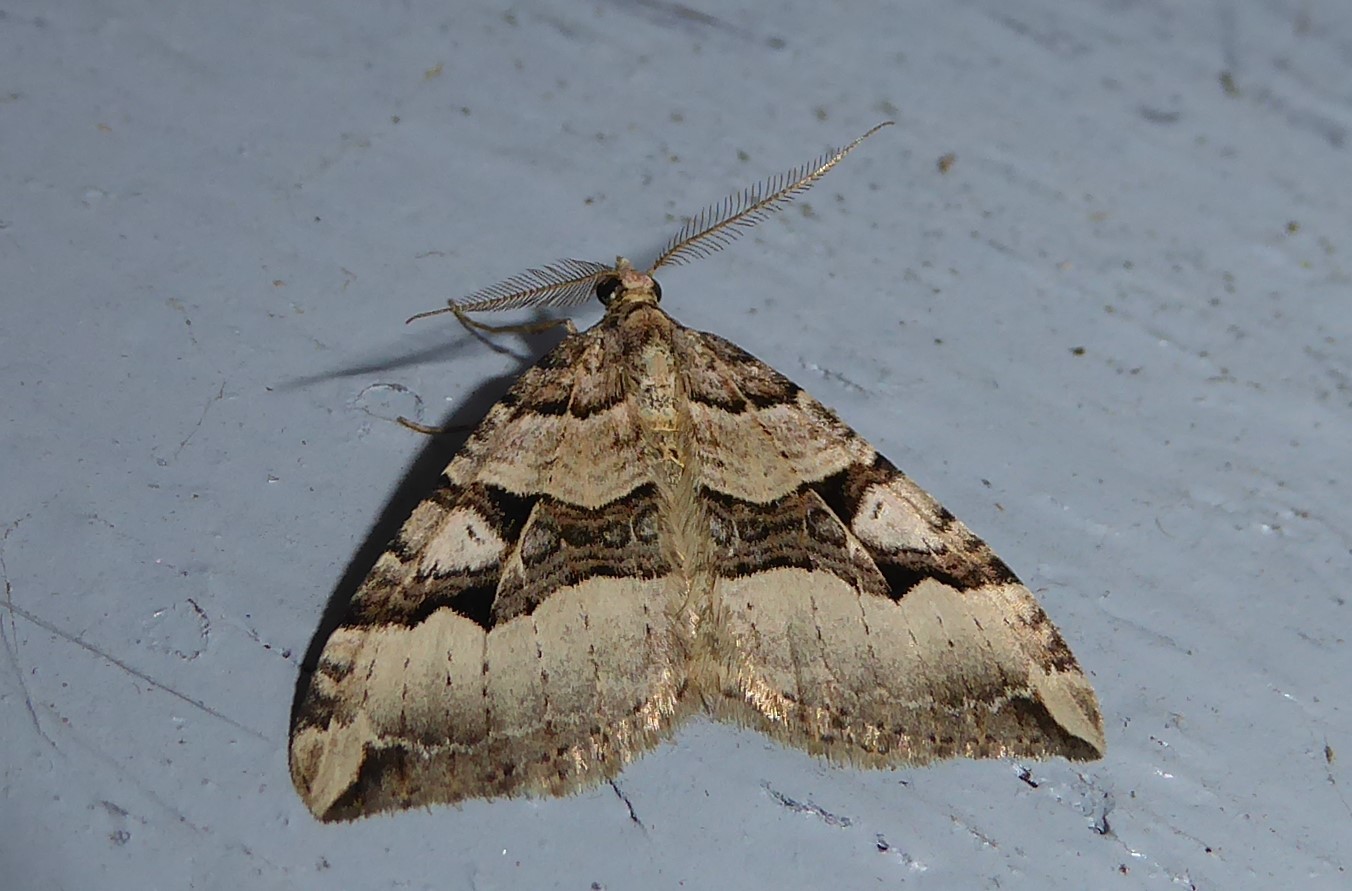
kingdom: Animalia
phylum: Arthropoda
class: Insecta
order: Lepidoptera
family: Geometridae
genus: Xanthorhoe
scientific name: Xanthorhoe semifissata
